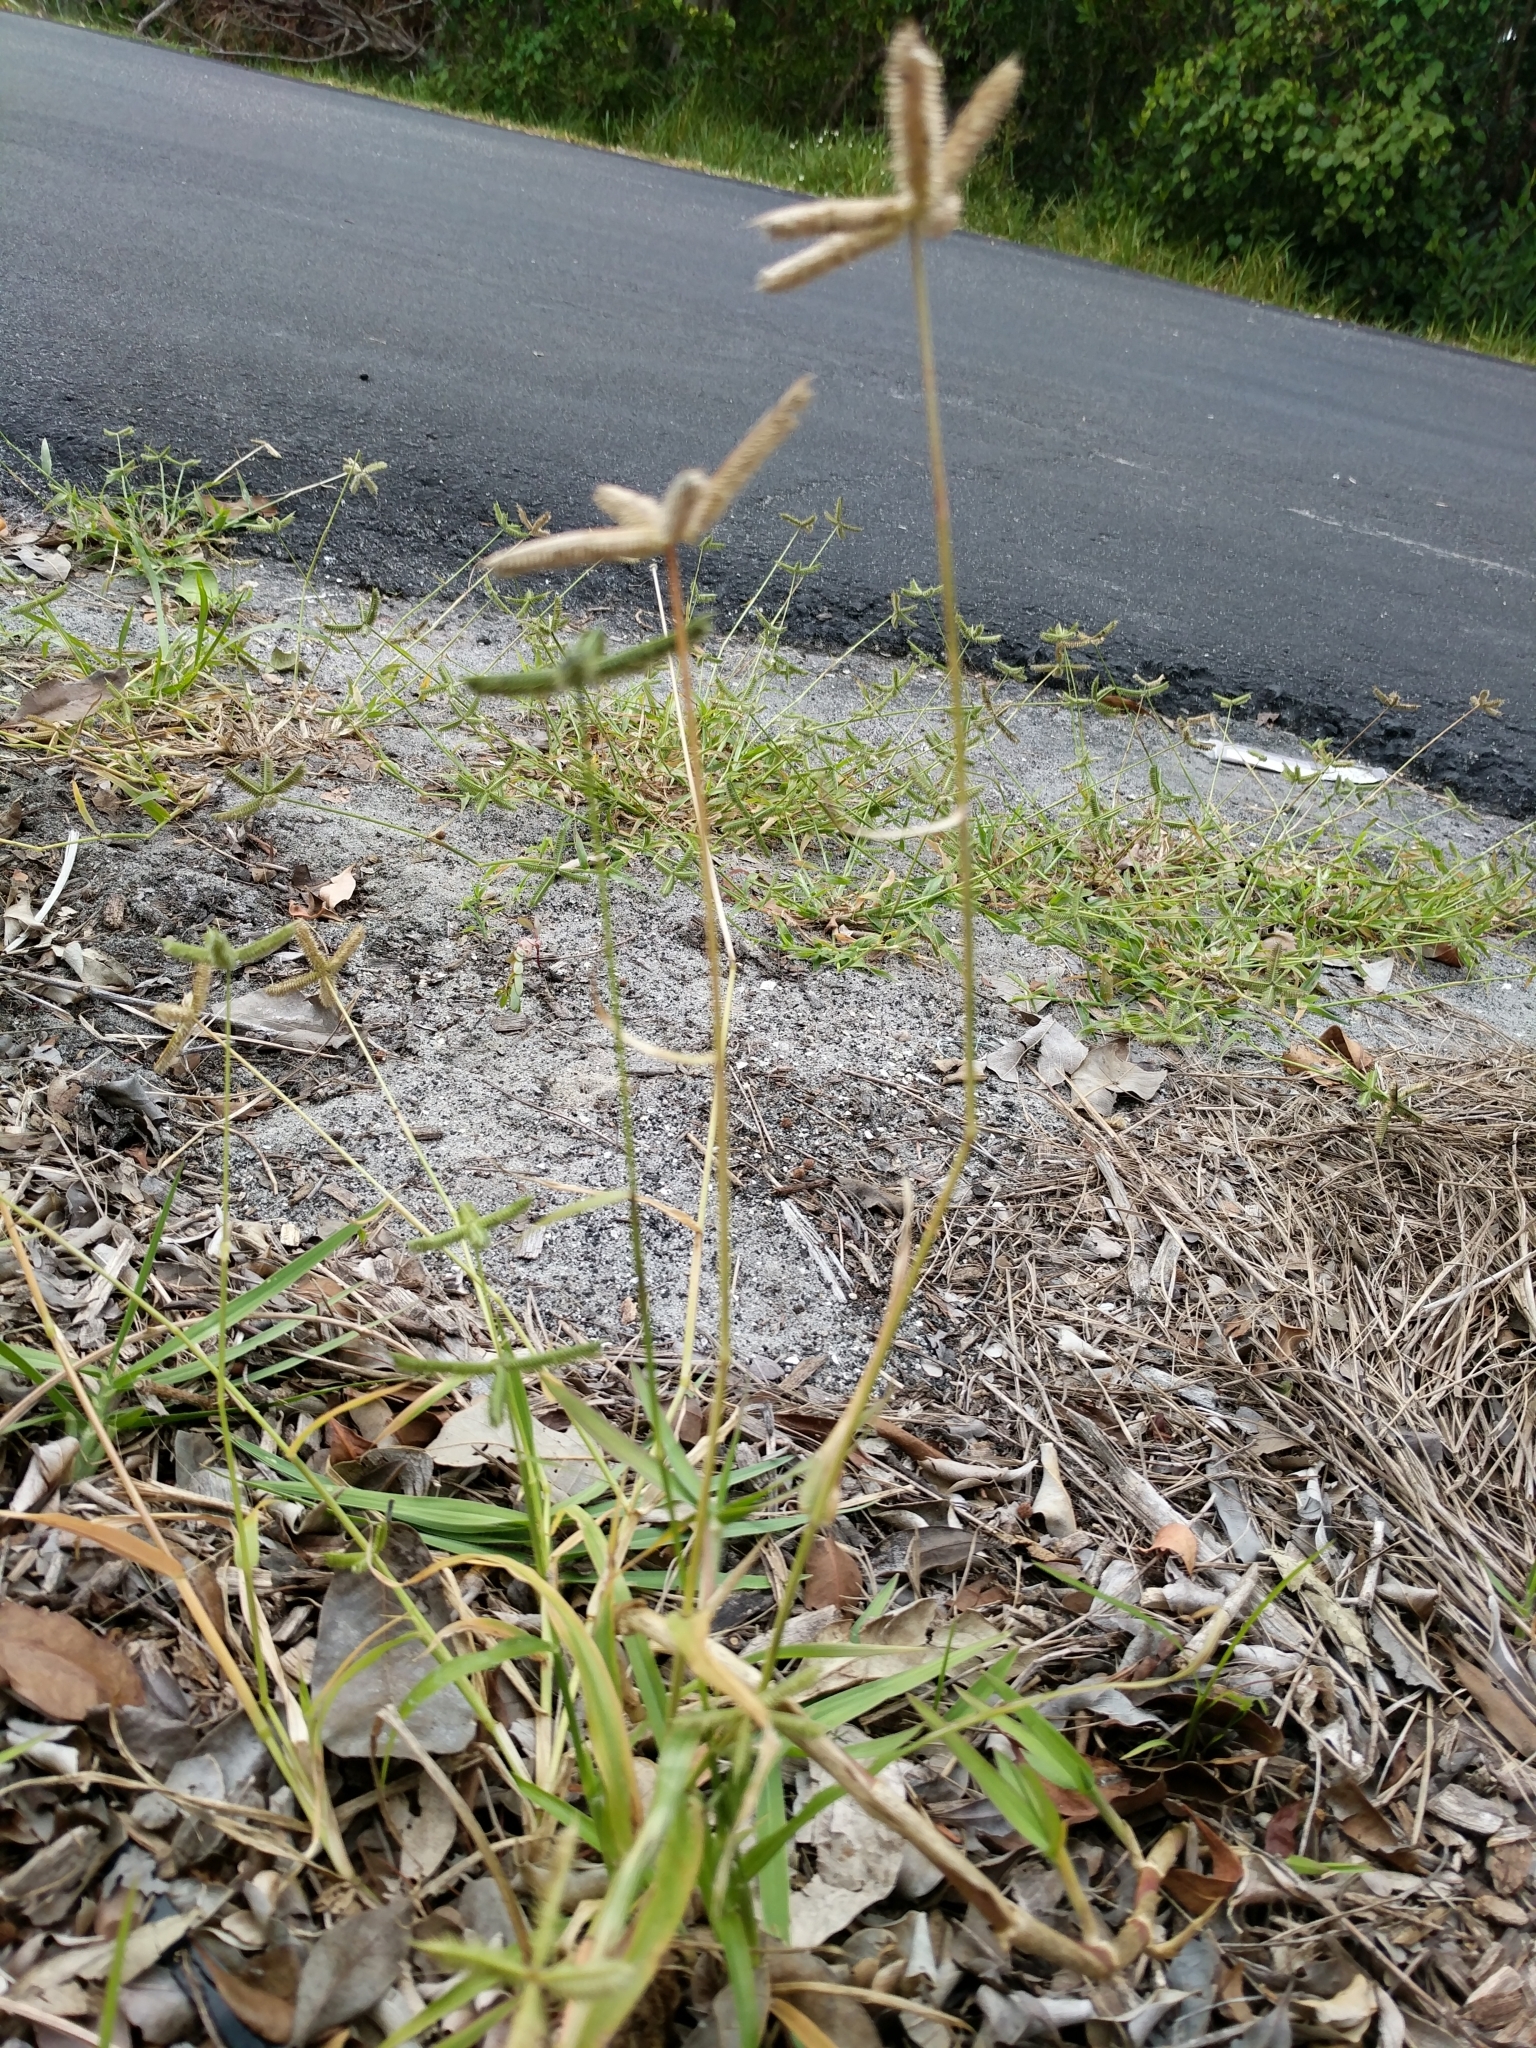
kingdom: Plantae
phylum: Tracheophyta
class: Liliopsida
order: Poales
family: Poaceae
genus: Dactyloctenium
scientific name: Dactyloctenium aegyptium
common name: Egyptian grass
